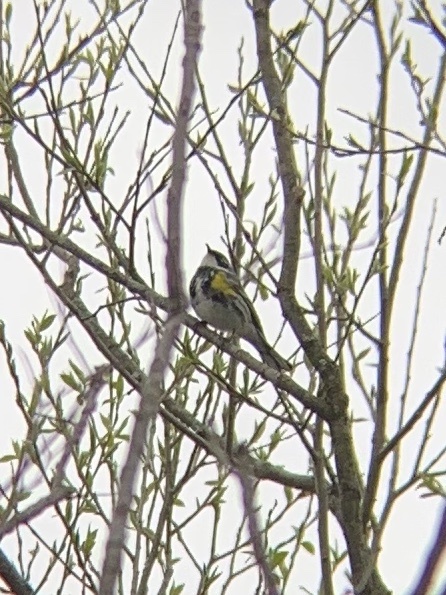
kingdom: Animalia
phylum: Chordata
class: Aves
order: Passeriformes
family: Parulidae
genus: Setophaga
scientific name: Setophaga coronata
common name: Myrtle warbler
